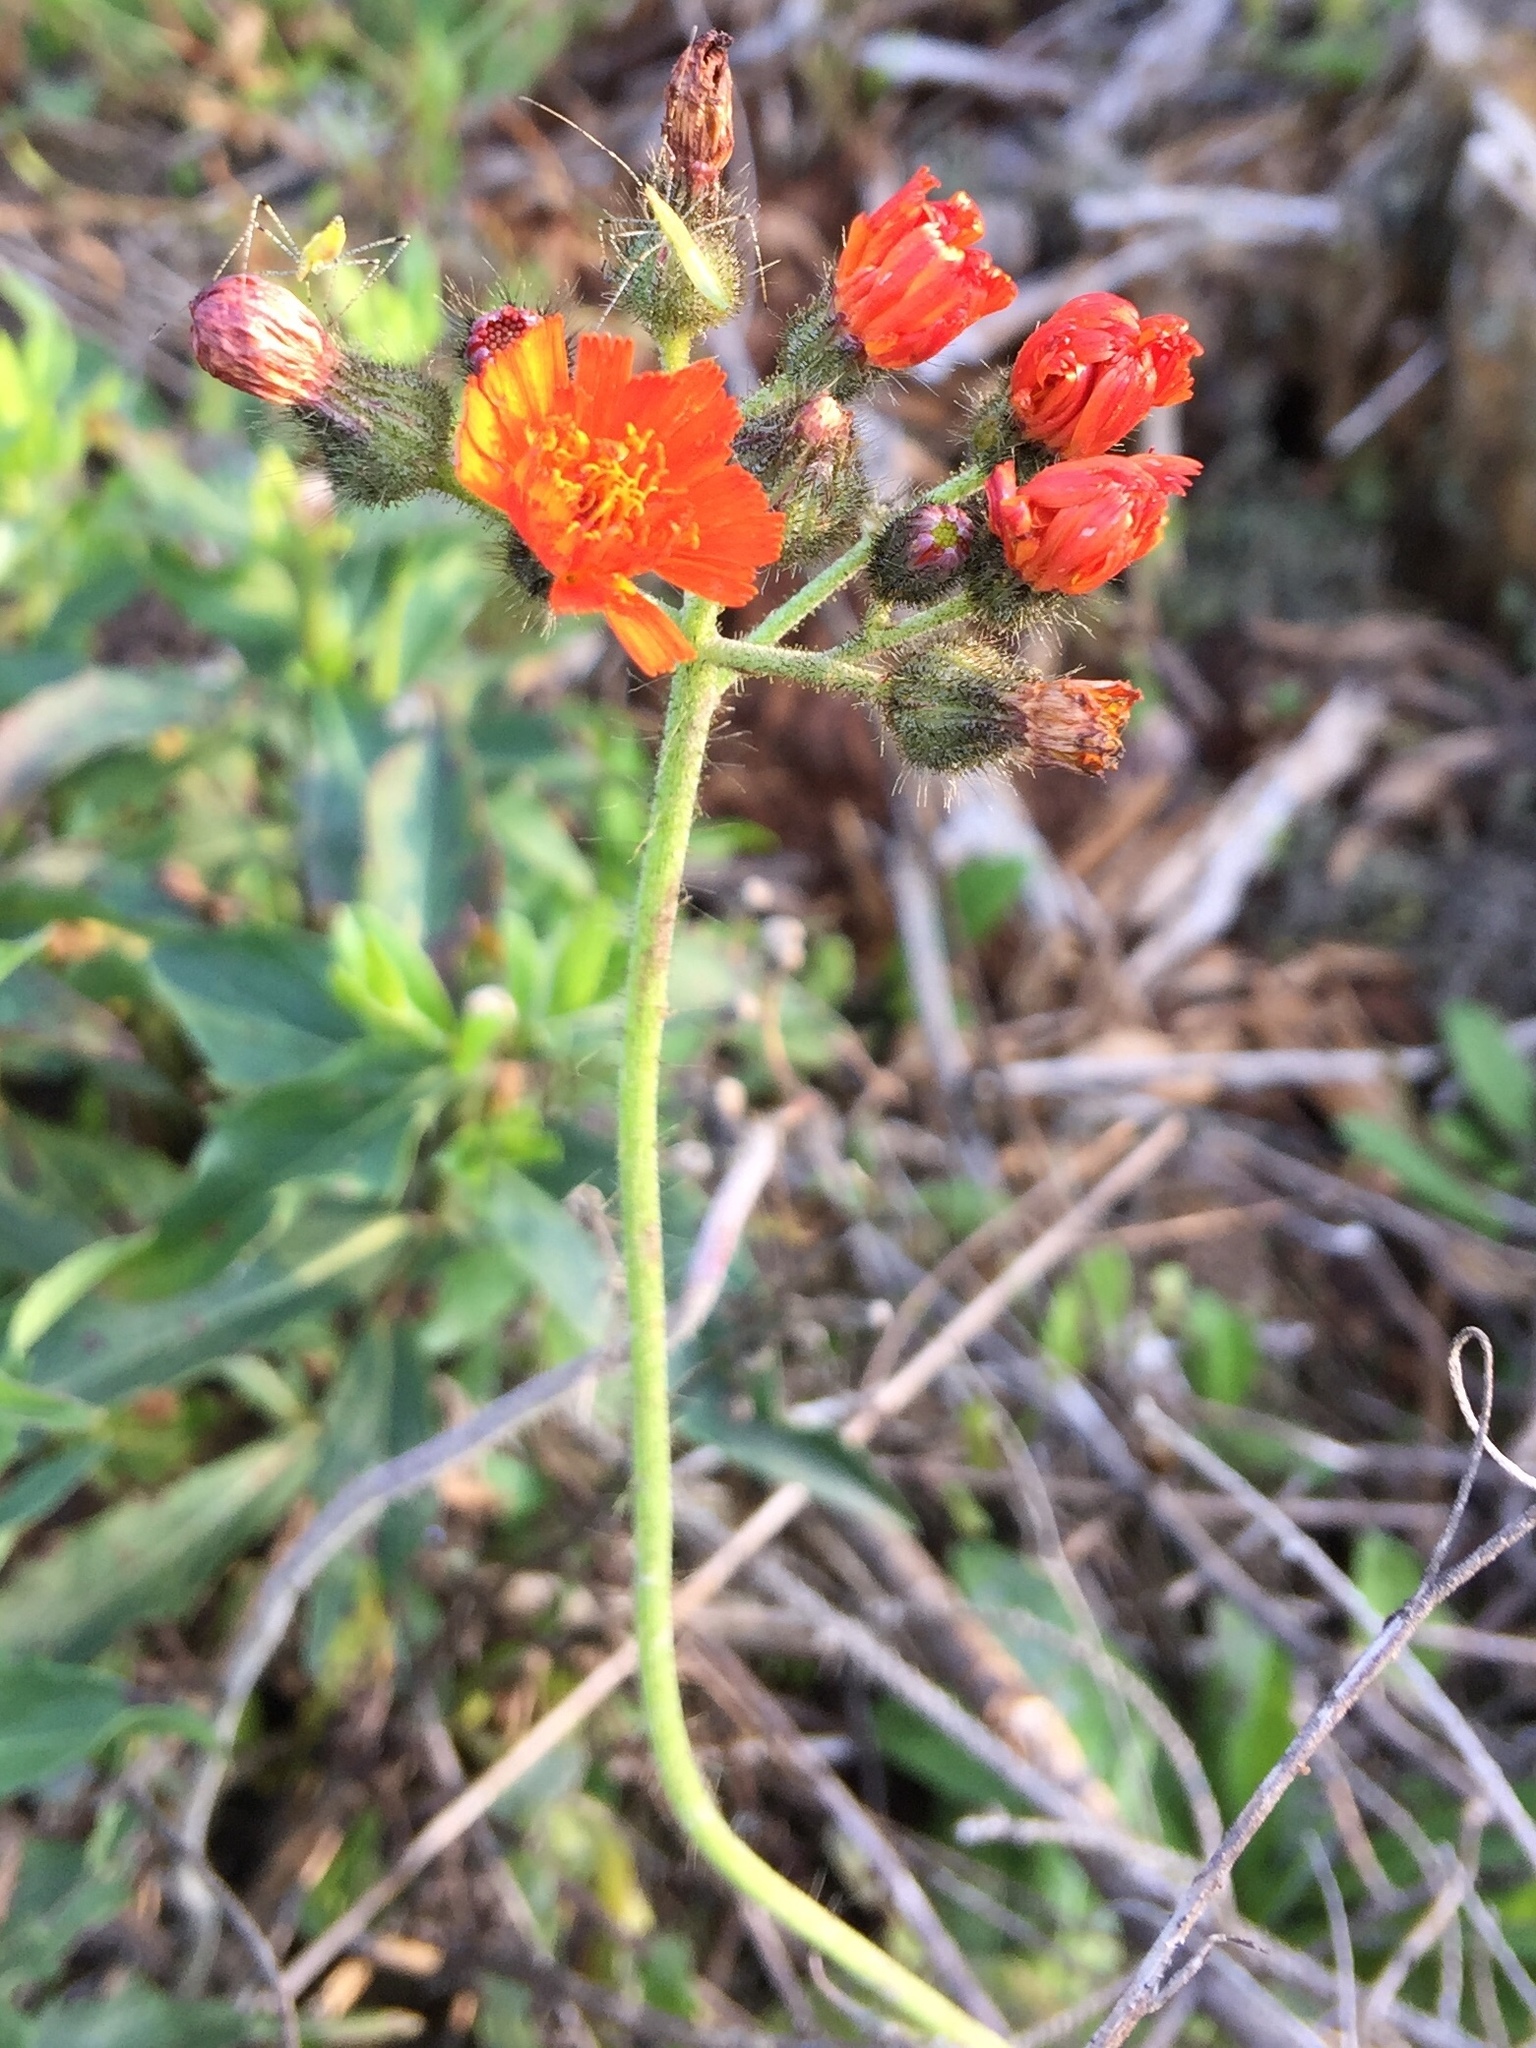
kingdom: Plantae
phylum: Tracheophyta
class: Magnoliopsida
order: Asterales
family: Asteraceae
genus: Pilosella
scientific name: Pilosella aurantiaca
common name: Fox-and-cubs
